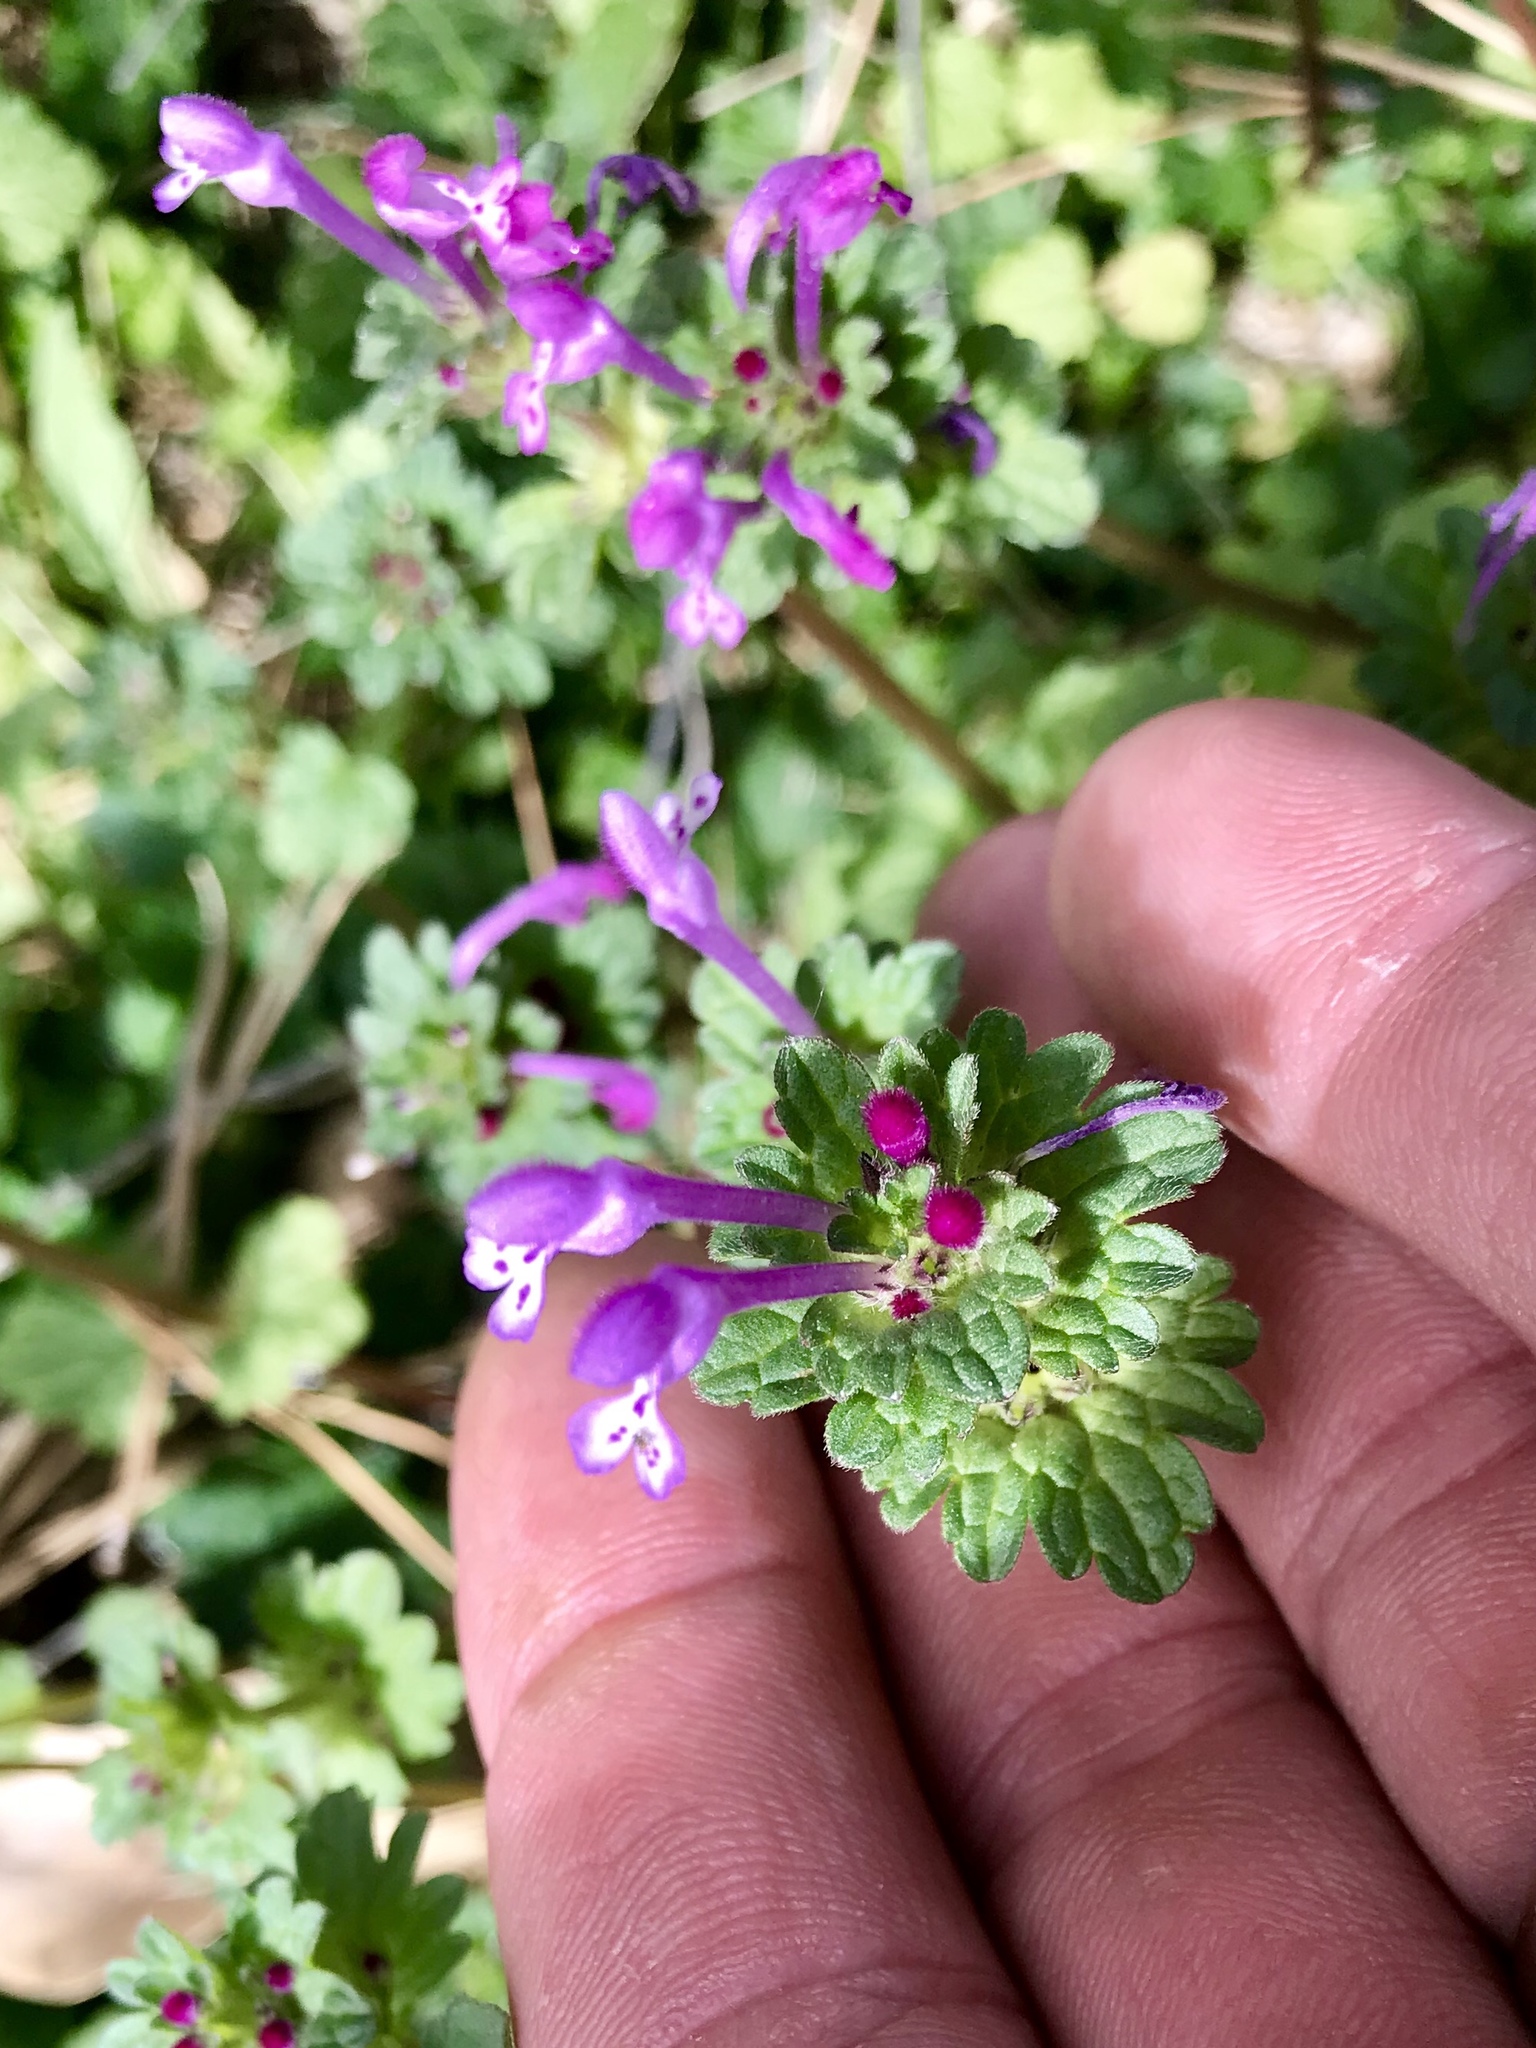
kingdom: Plantae
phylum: Tracheophyta
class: Magnoliopsida
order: Lamiales
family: Lamiaceae
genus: Lamium
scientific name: Lamium amplexicaule
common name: Henbit dead-nettle
